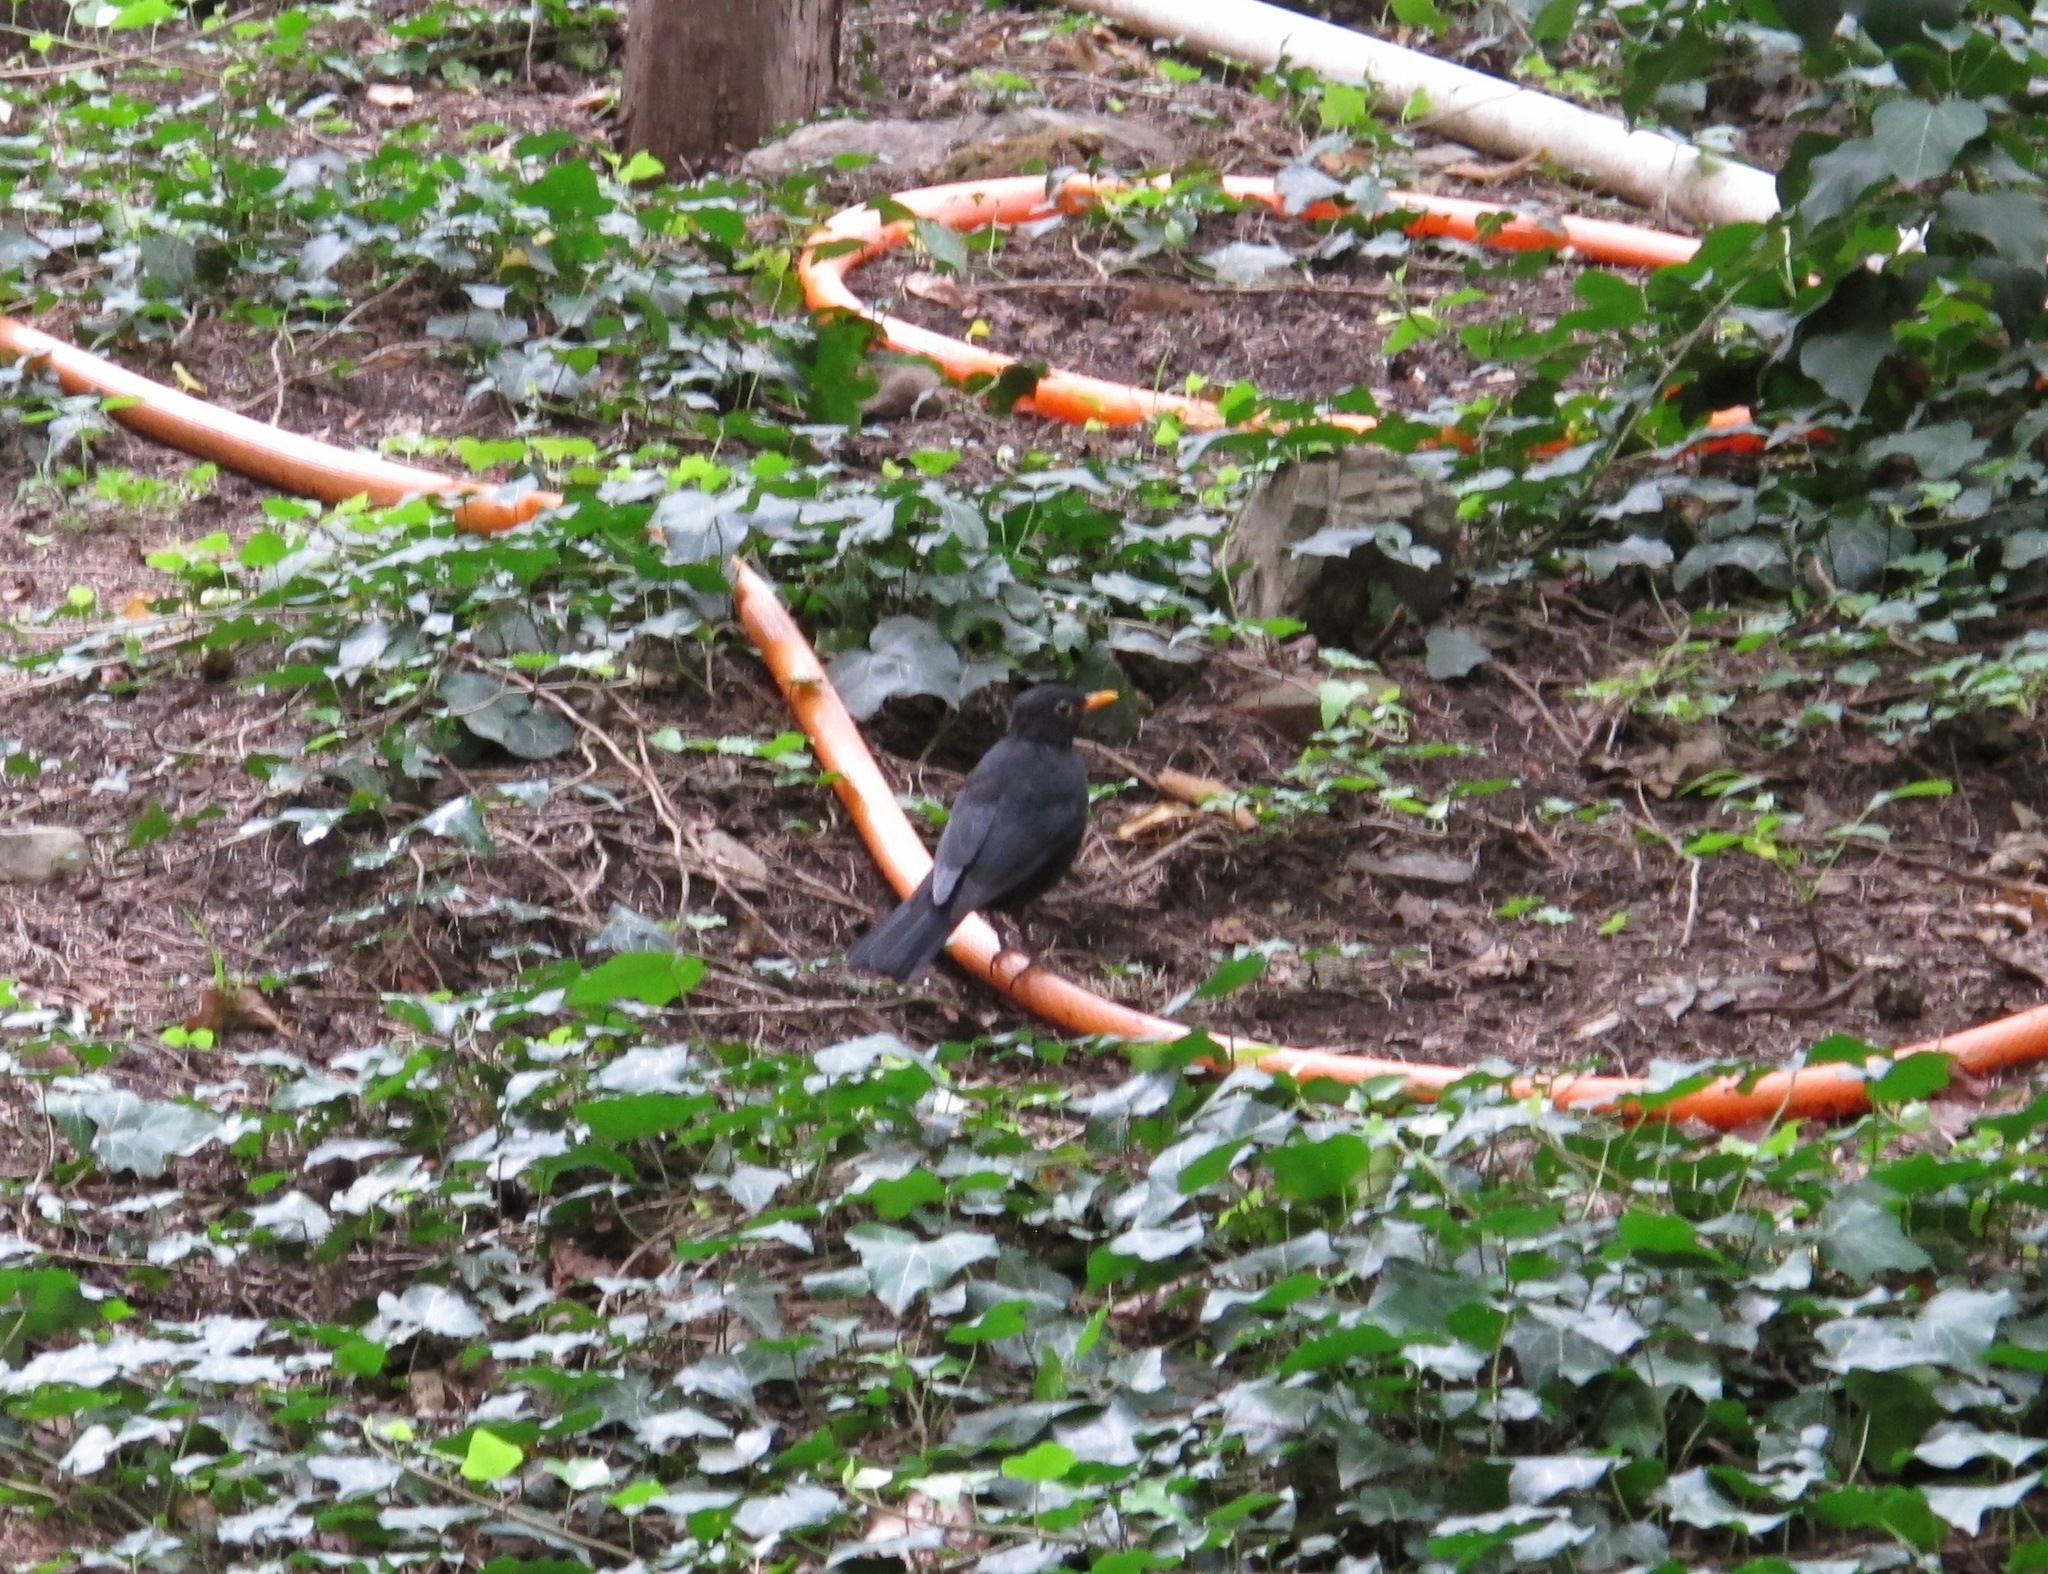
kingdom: Animalia
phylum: Chordata
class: Aves
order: Passeriformes
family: Turdidae
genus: Turdus
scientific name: Turdus merula
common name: Common blackbird
